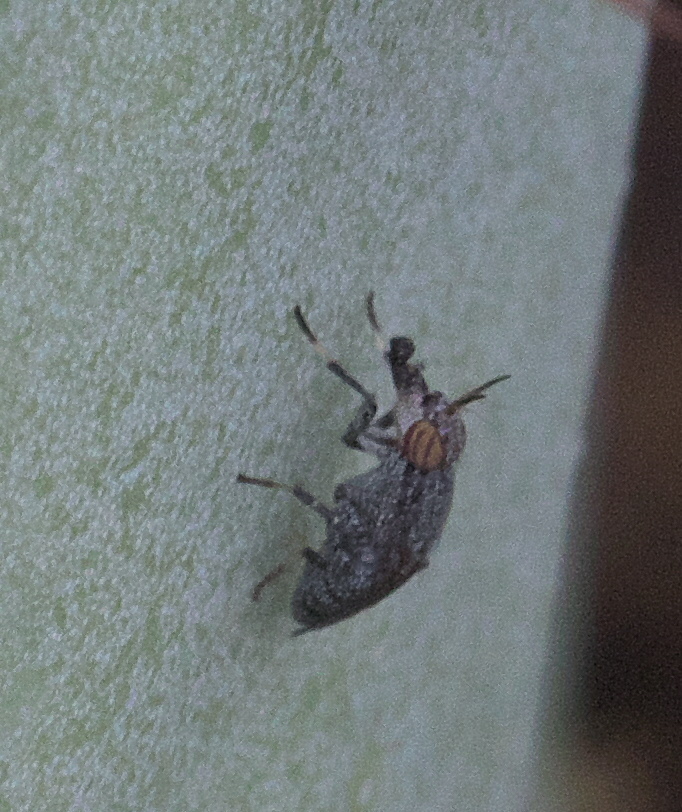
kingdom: Animalia
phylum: Arthropoda
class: Insecta
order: Diptera
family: Ulidiidae
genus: Stictomyia
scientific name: Stictomyia longicornis
